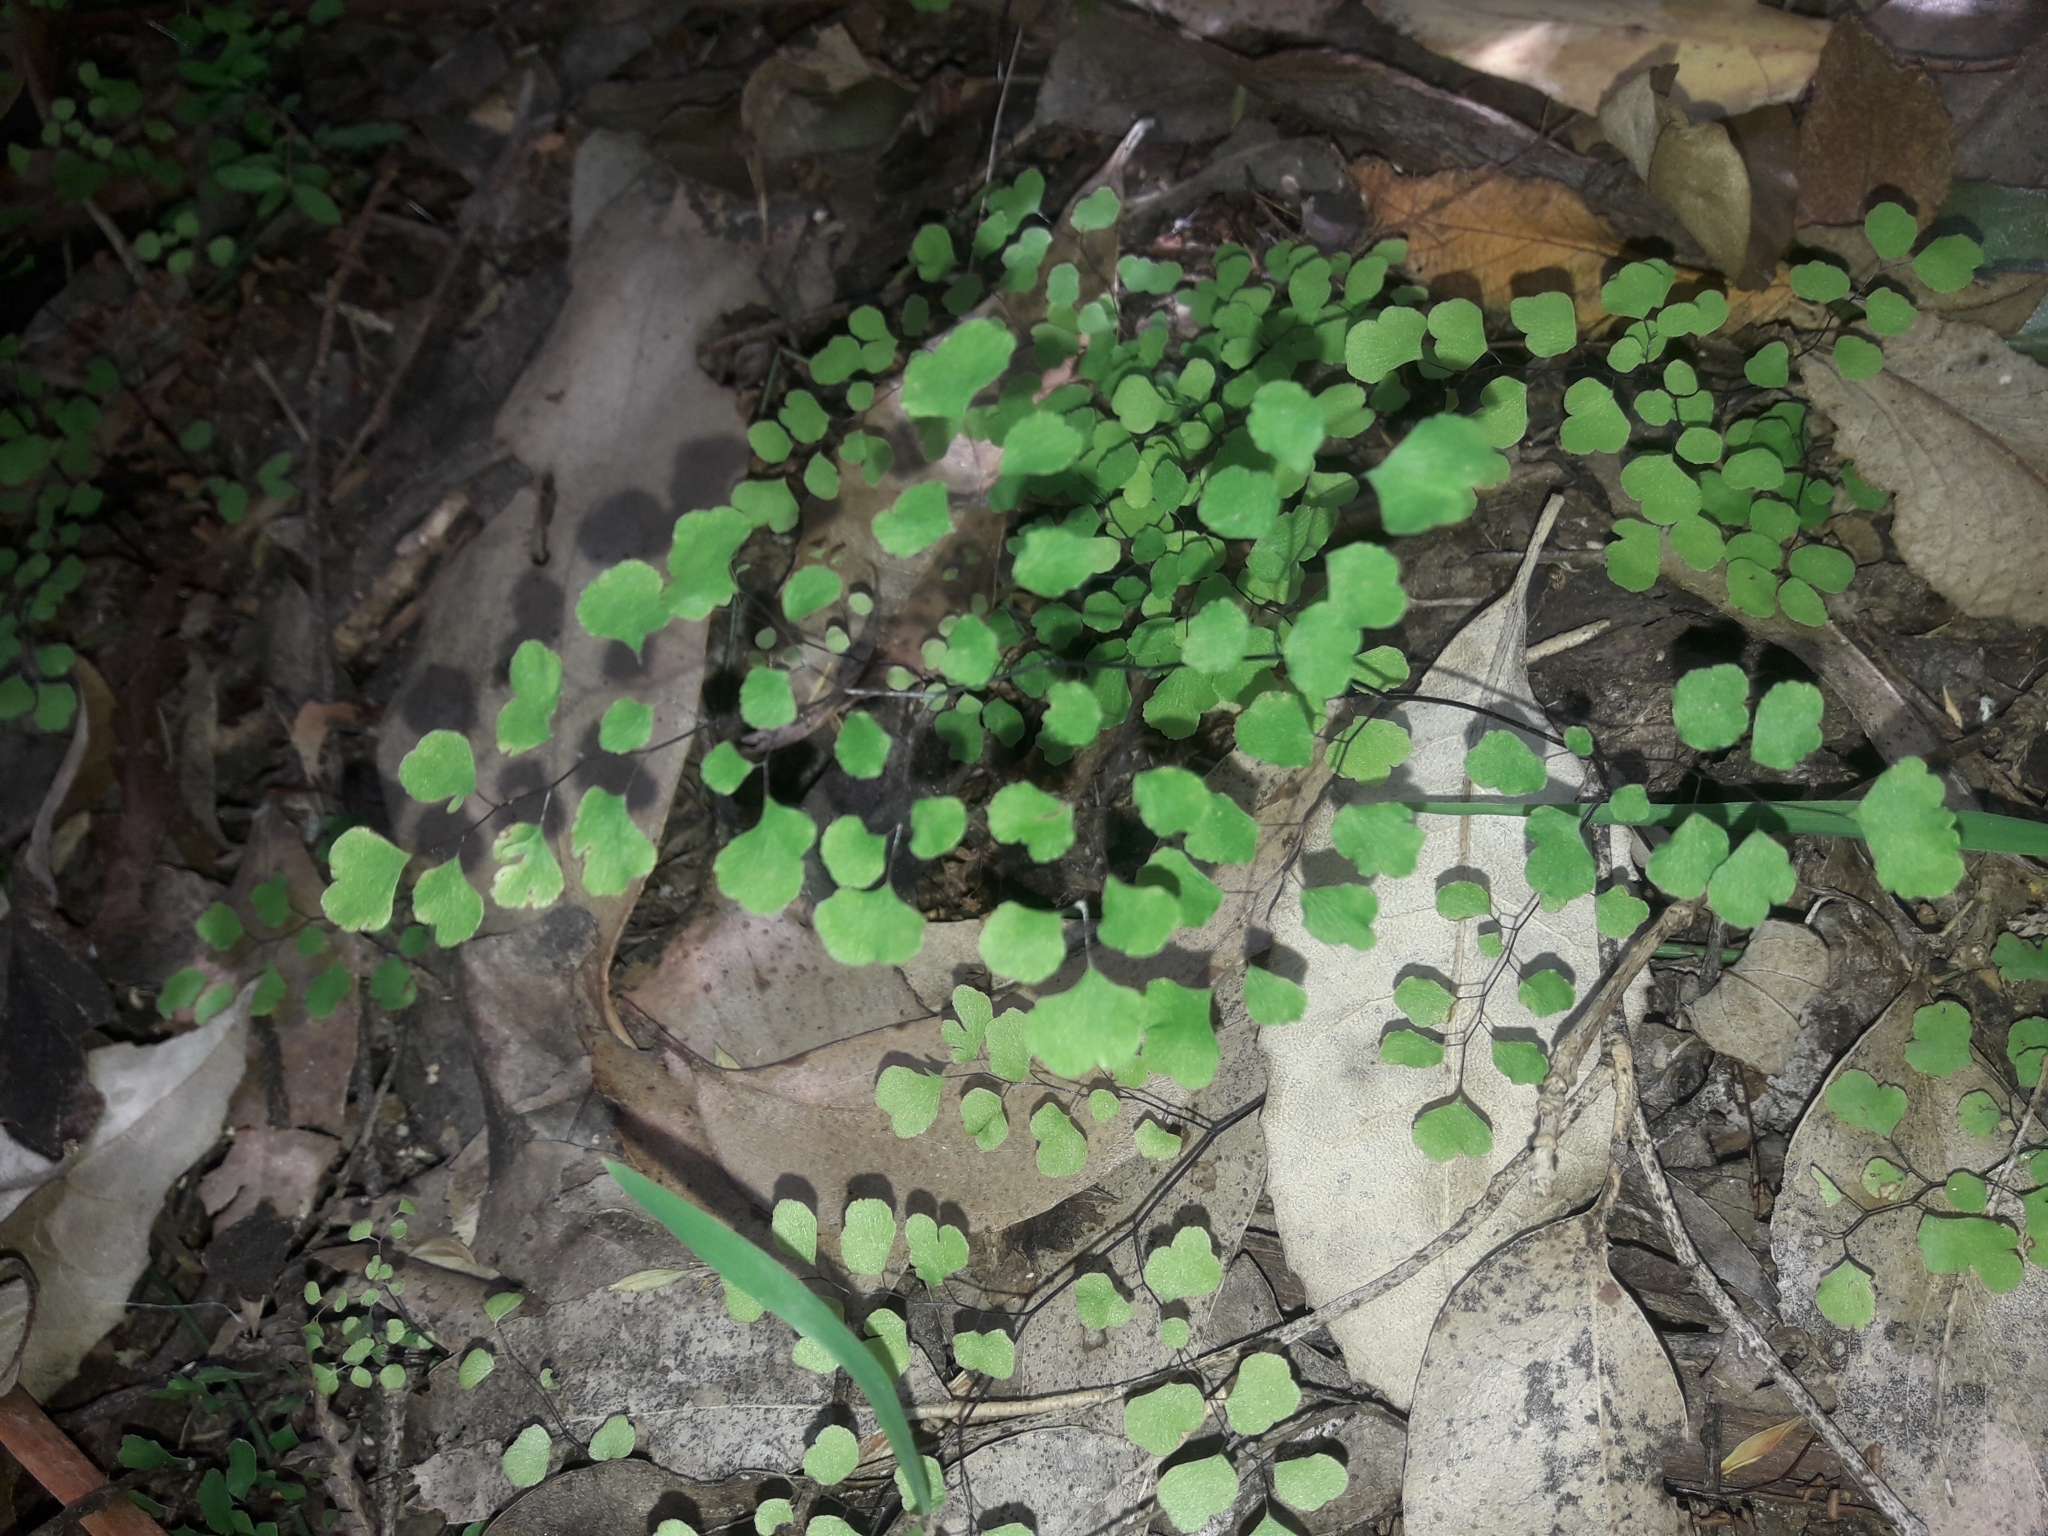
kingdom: Plantae
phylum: Tracheophyta
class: Polypodiopsida
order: Polypodiales
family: Pteridaceae
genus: Adiantum
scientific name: Adiantum aethiopicum
